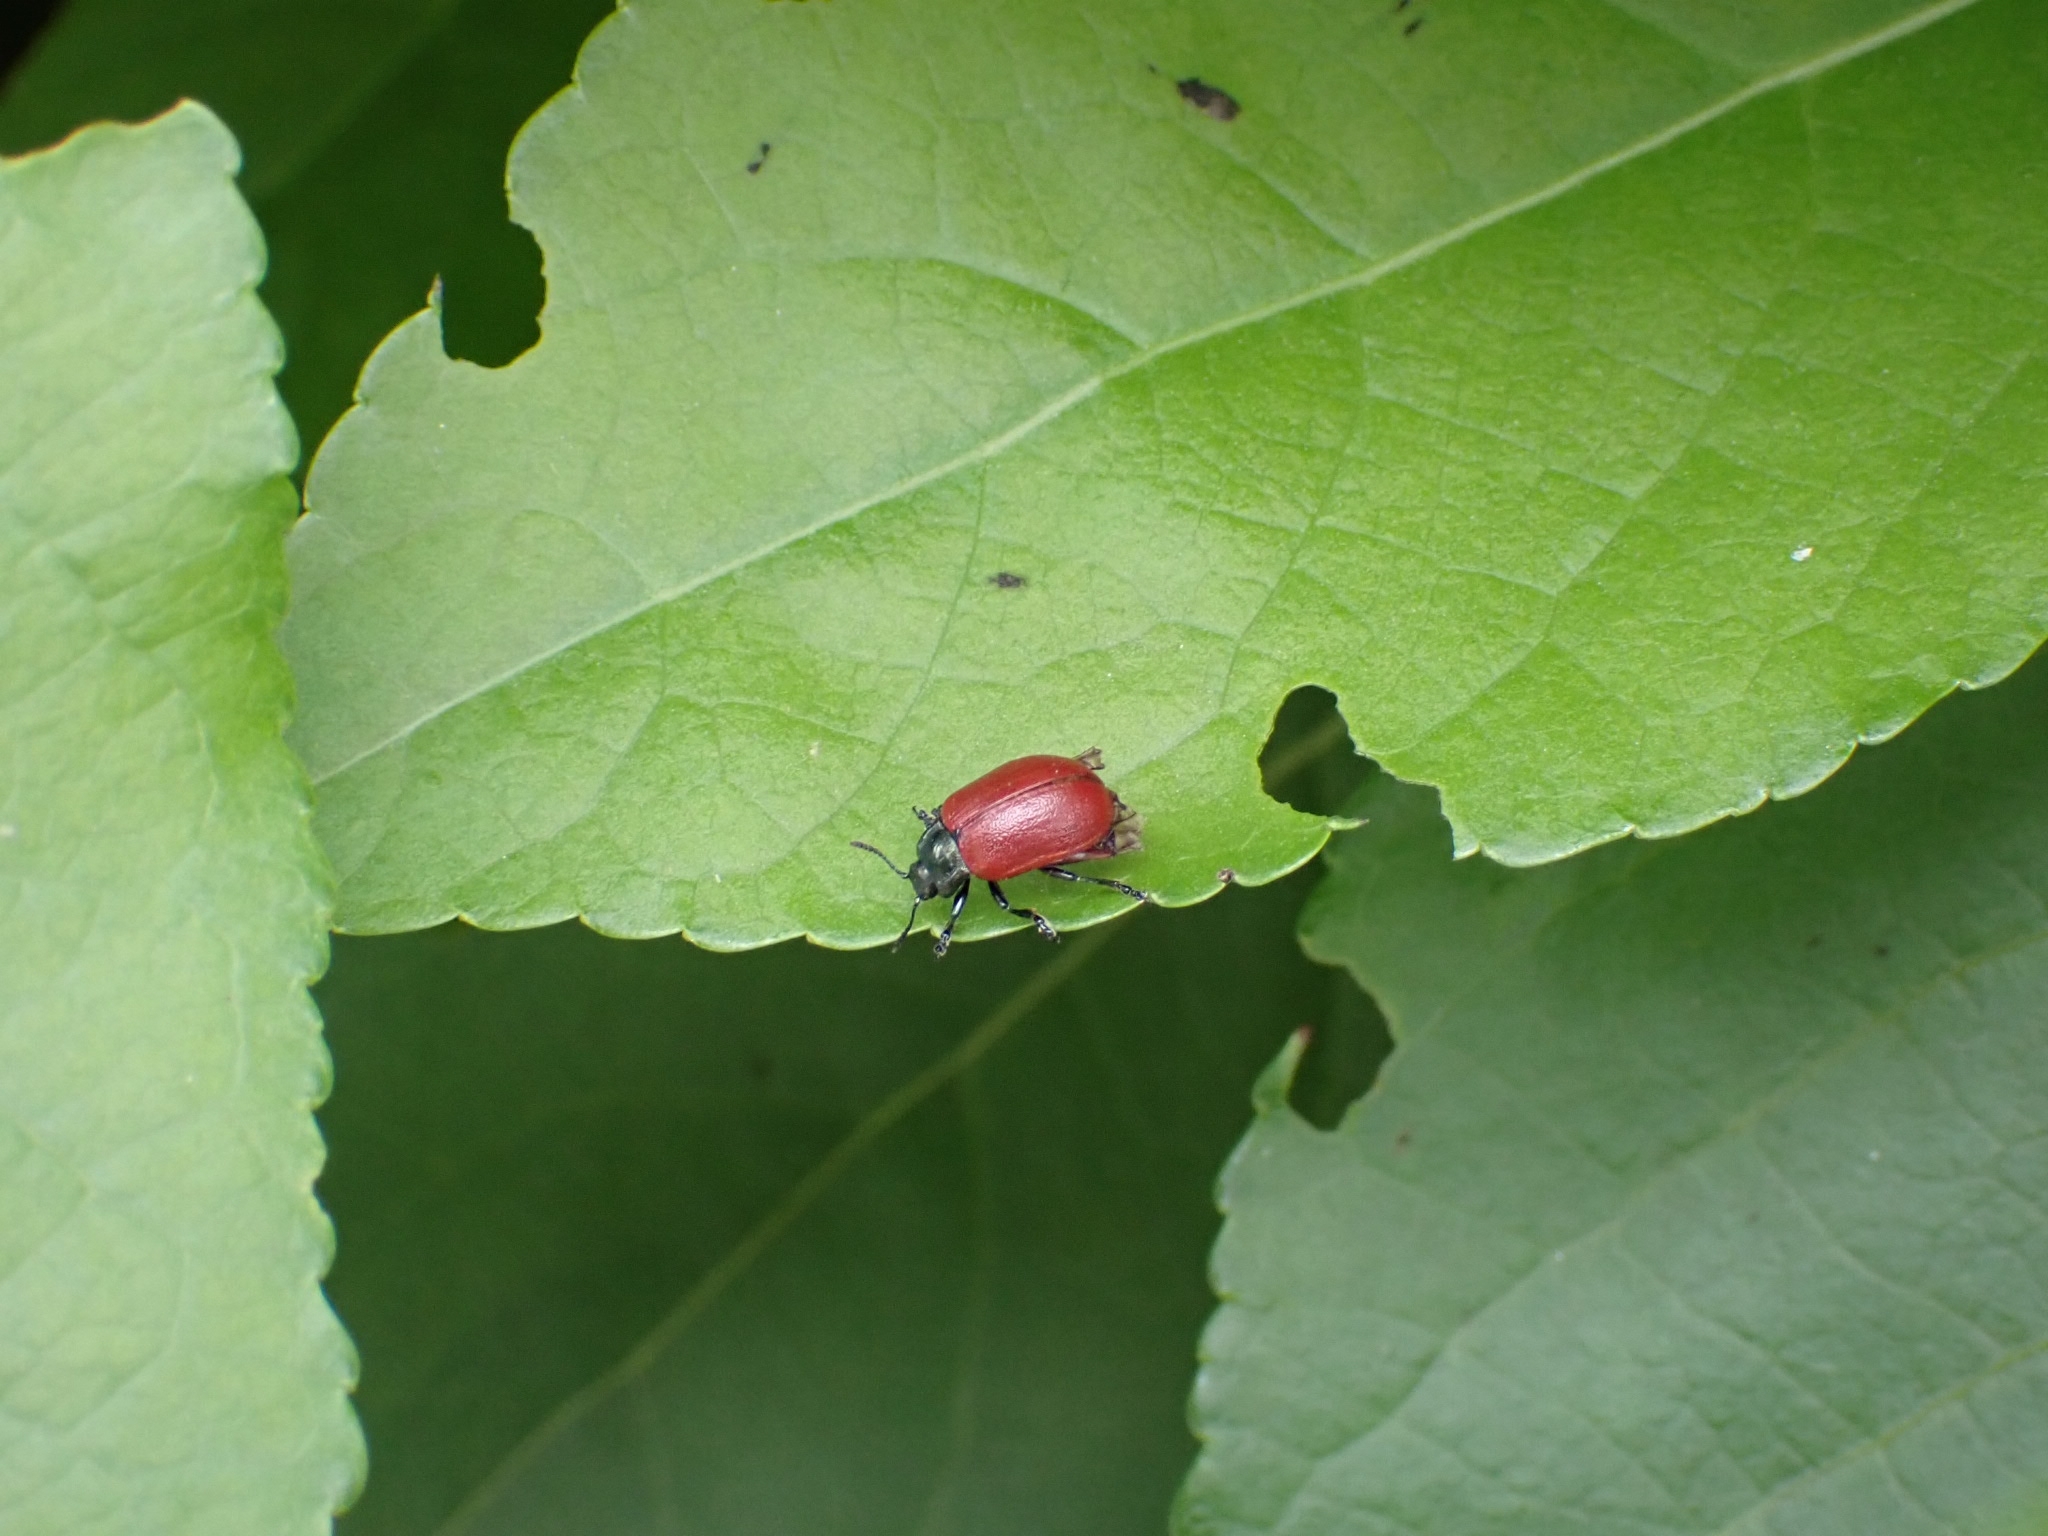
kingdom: Animalia
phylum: Arthropoda
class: Insecta
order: Coleoptera
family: Chrysomelidae
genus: Chrysomela
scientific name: Chrysomela populi
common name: Red poplar leaf beetle
